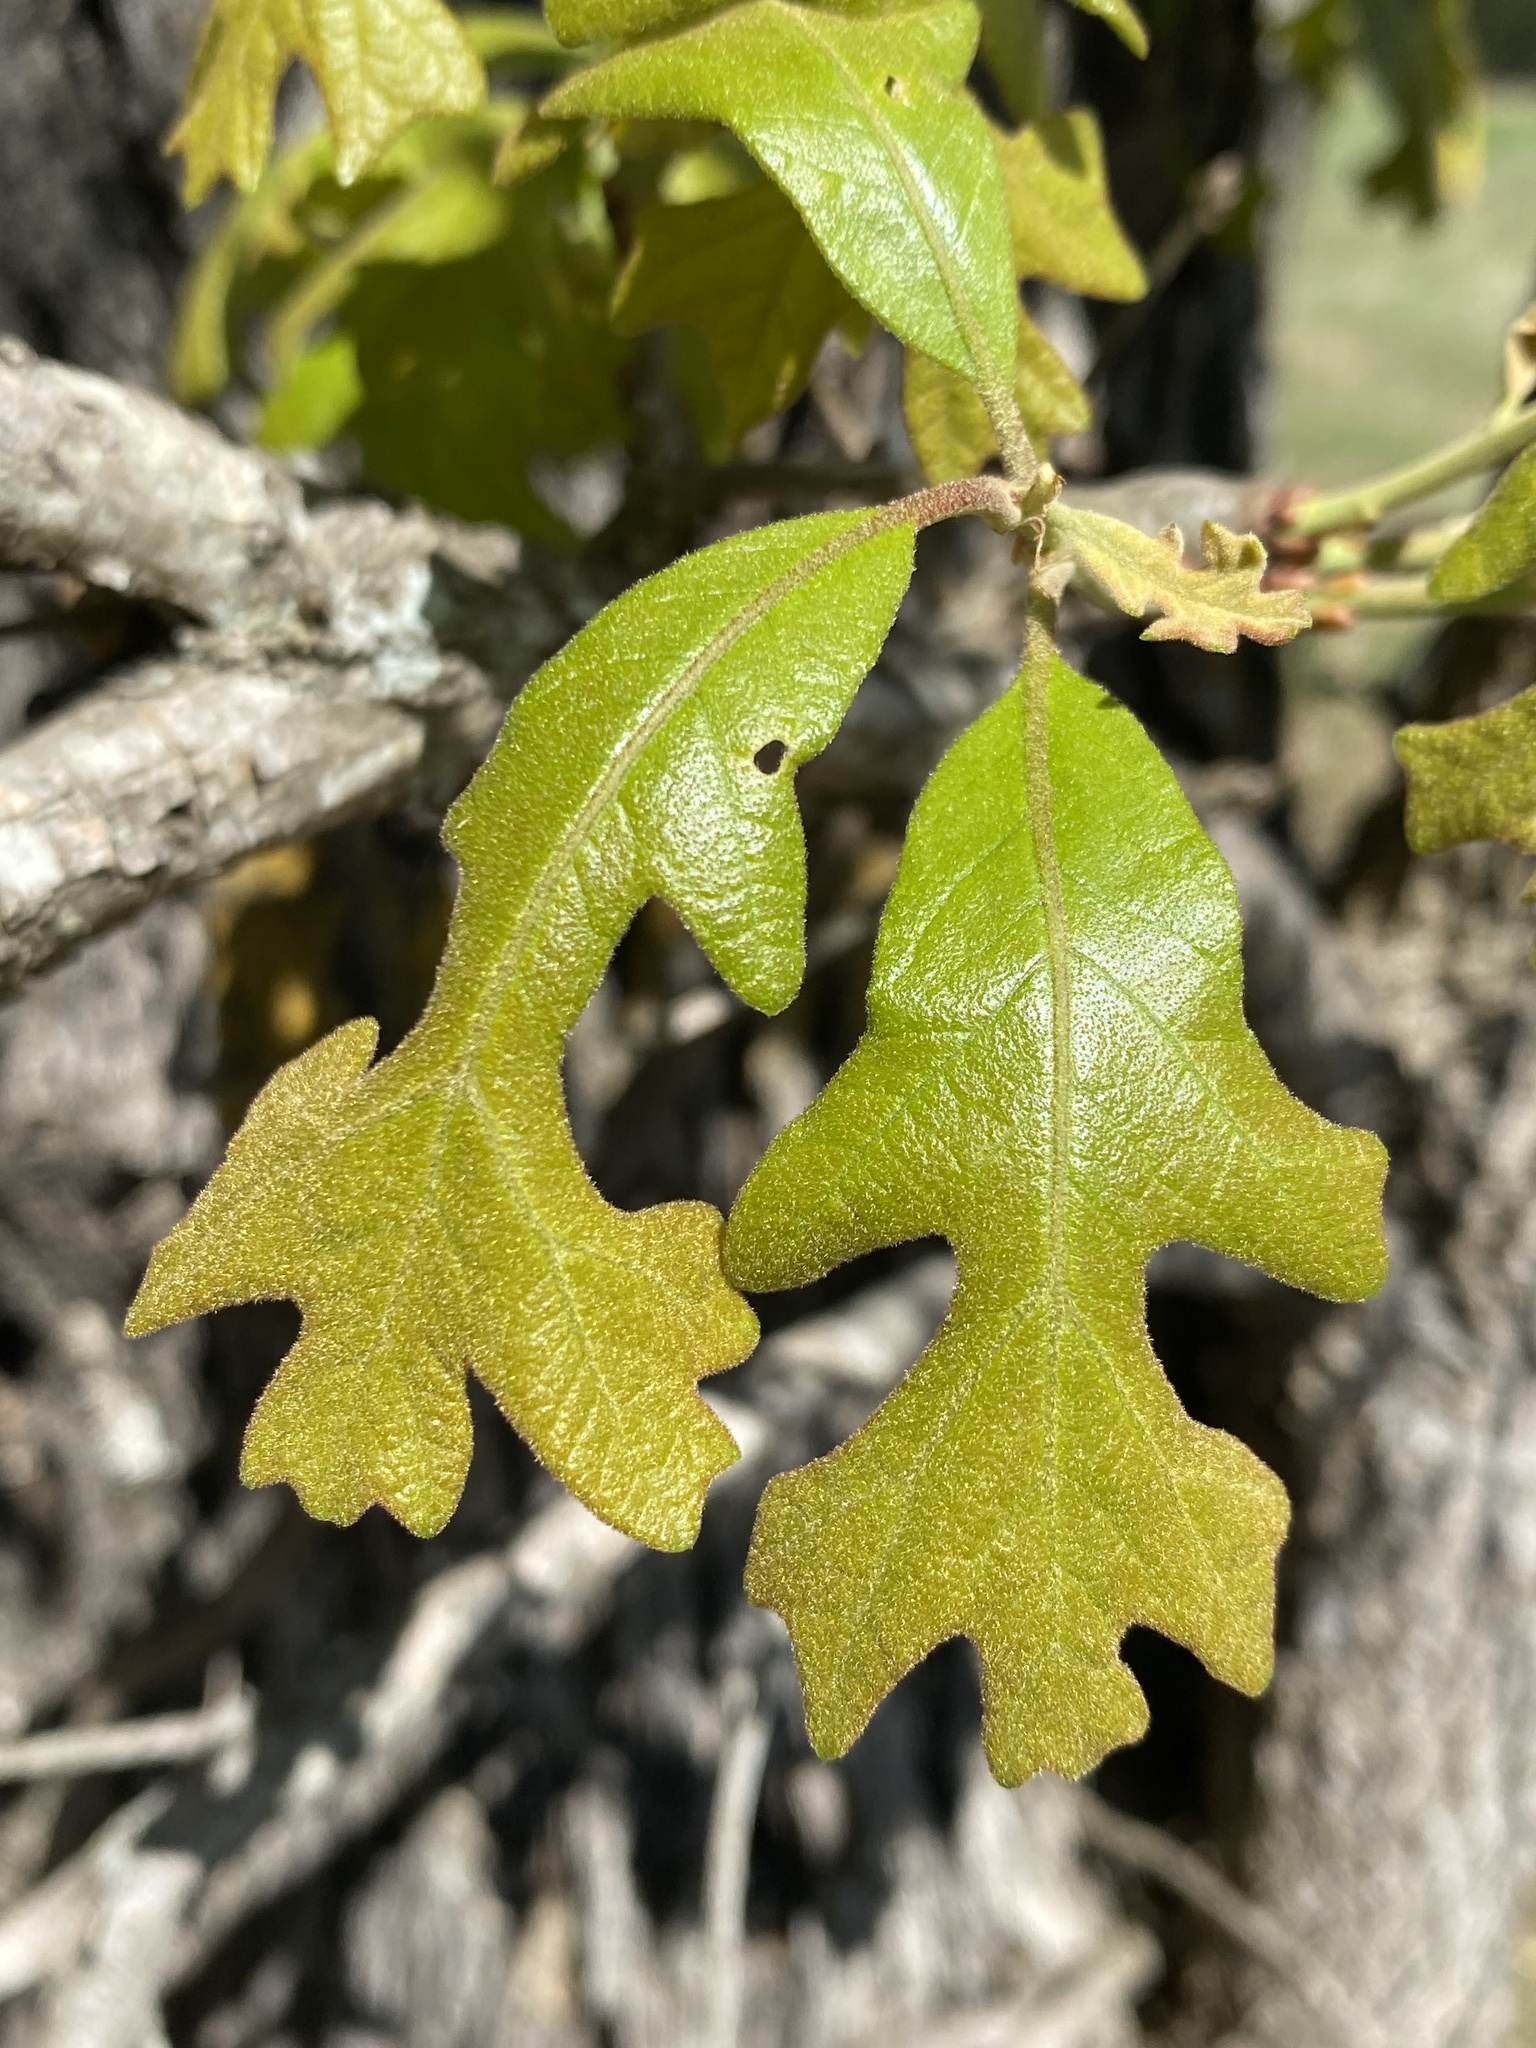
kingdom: Plantae
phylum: Tracheophyta
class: Magnoliopsida
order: Fagales
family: Fagaceae
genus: Quercus
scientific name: Quercus stellata
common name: Post oak
